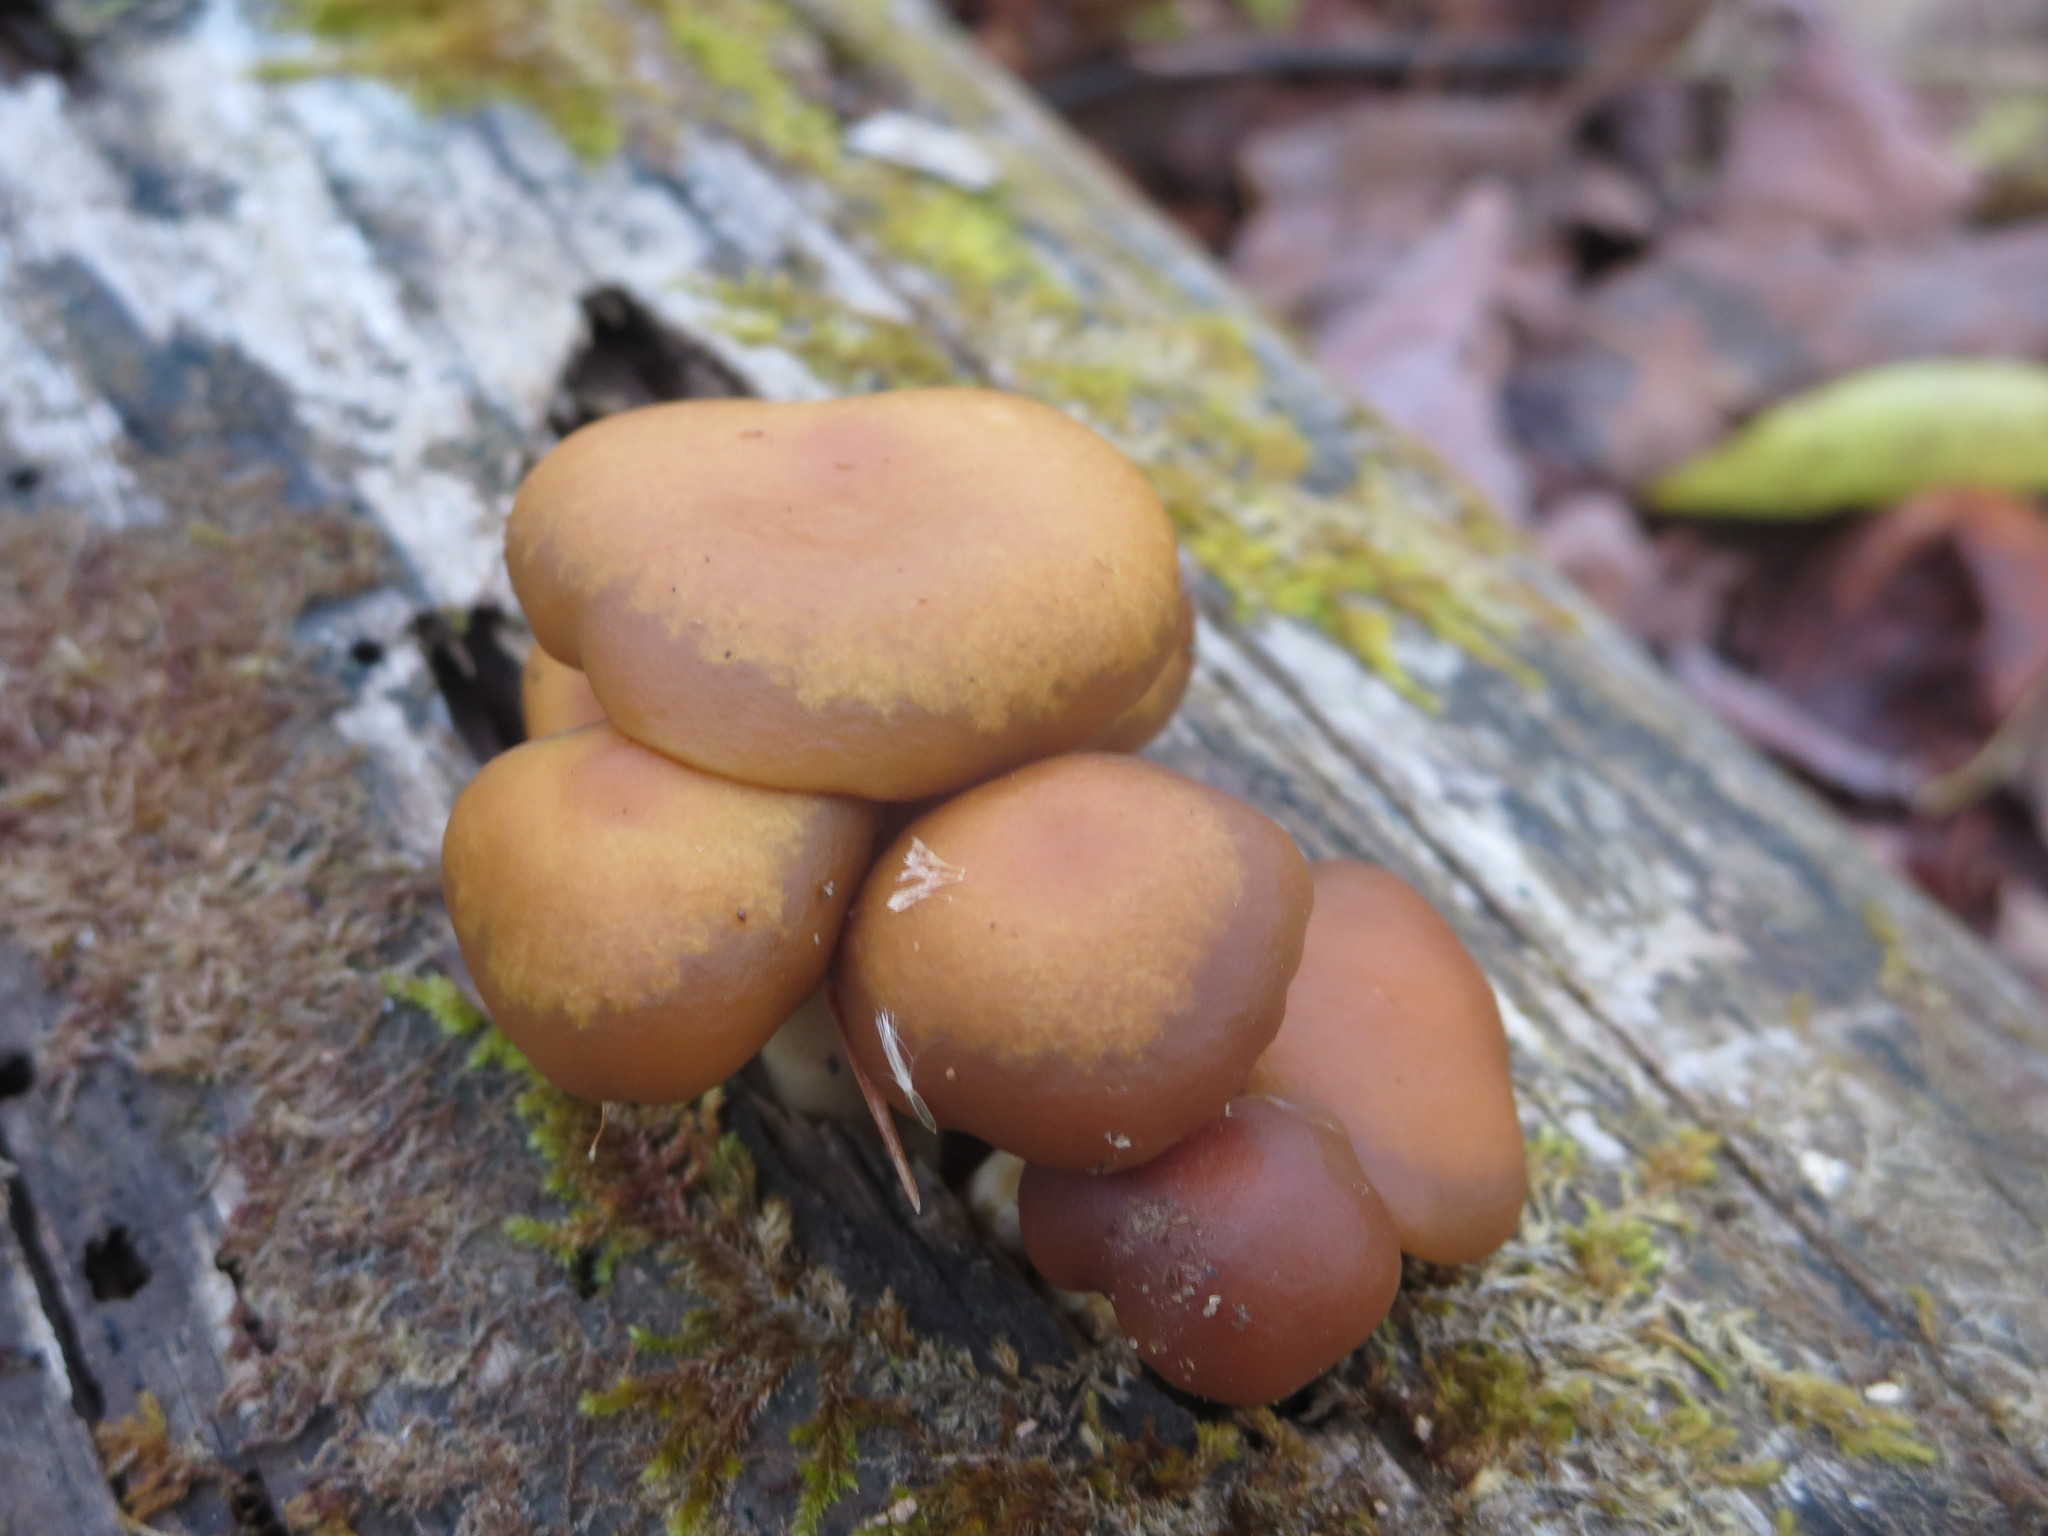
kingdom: Fungi
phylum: Basidiomycota
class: Agaricomycetes
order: Agaricales
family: Hymenogastraceae
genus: Galerina
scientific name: Galerina marginata
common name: Funeral bell
